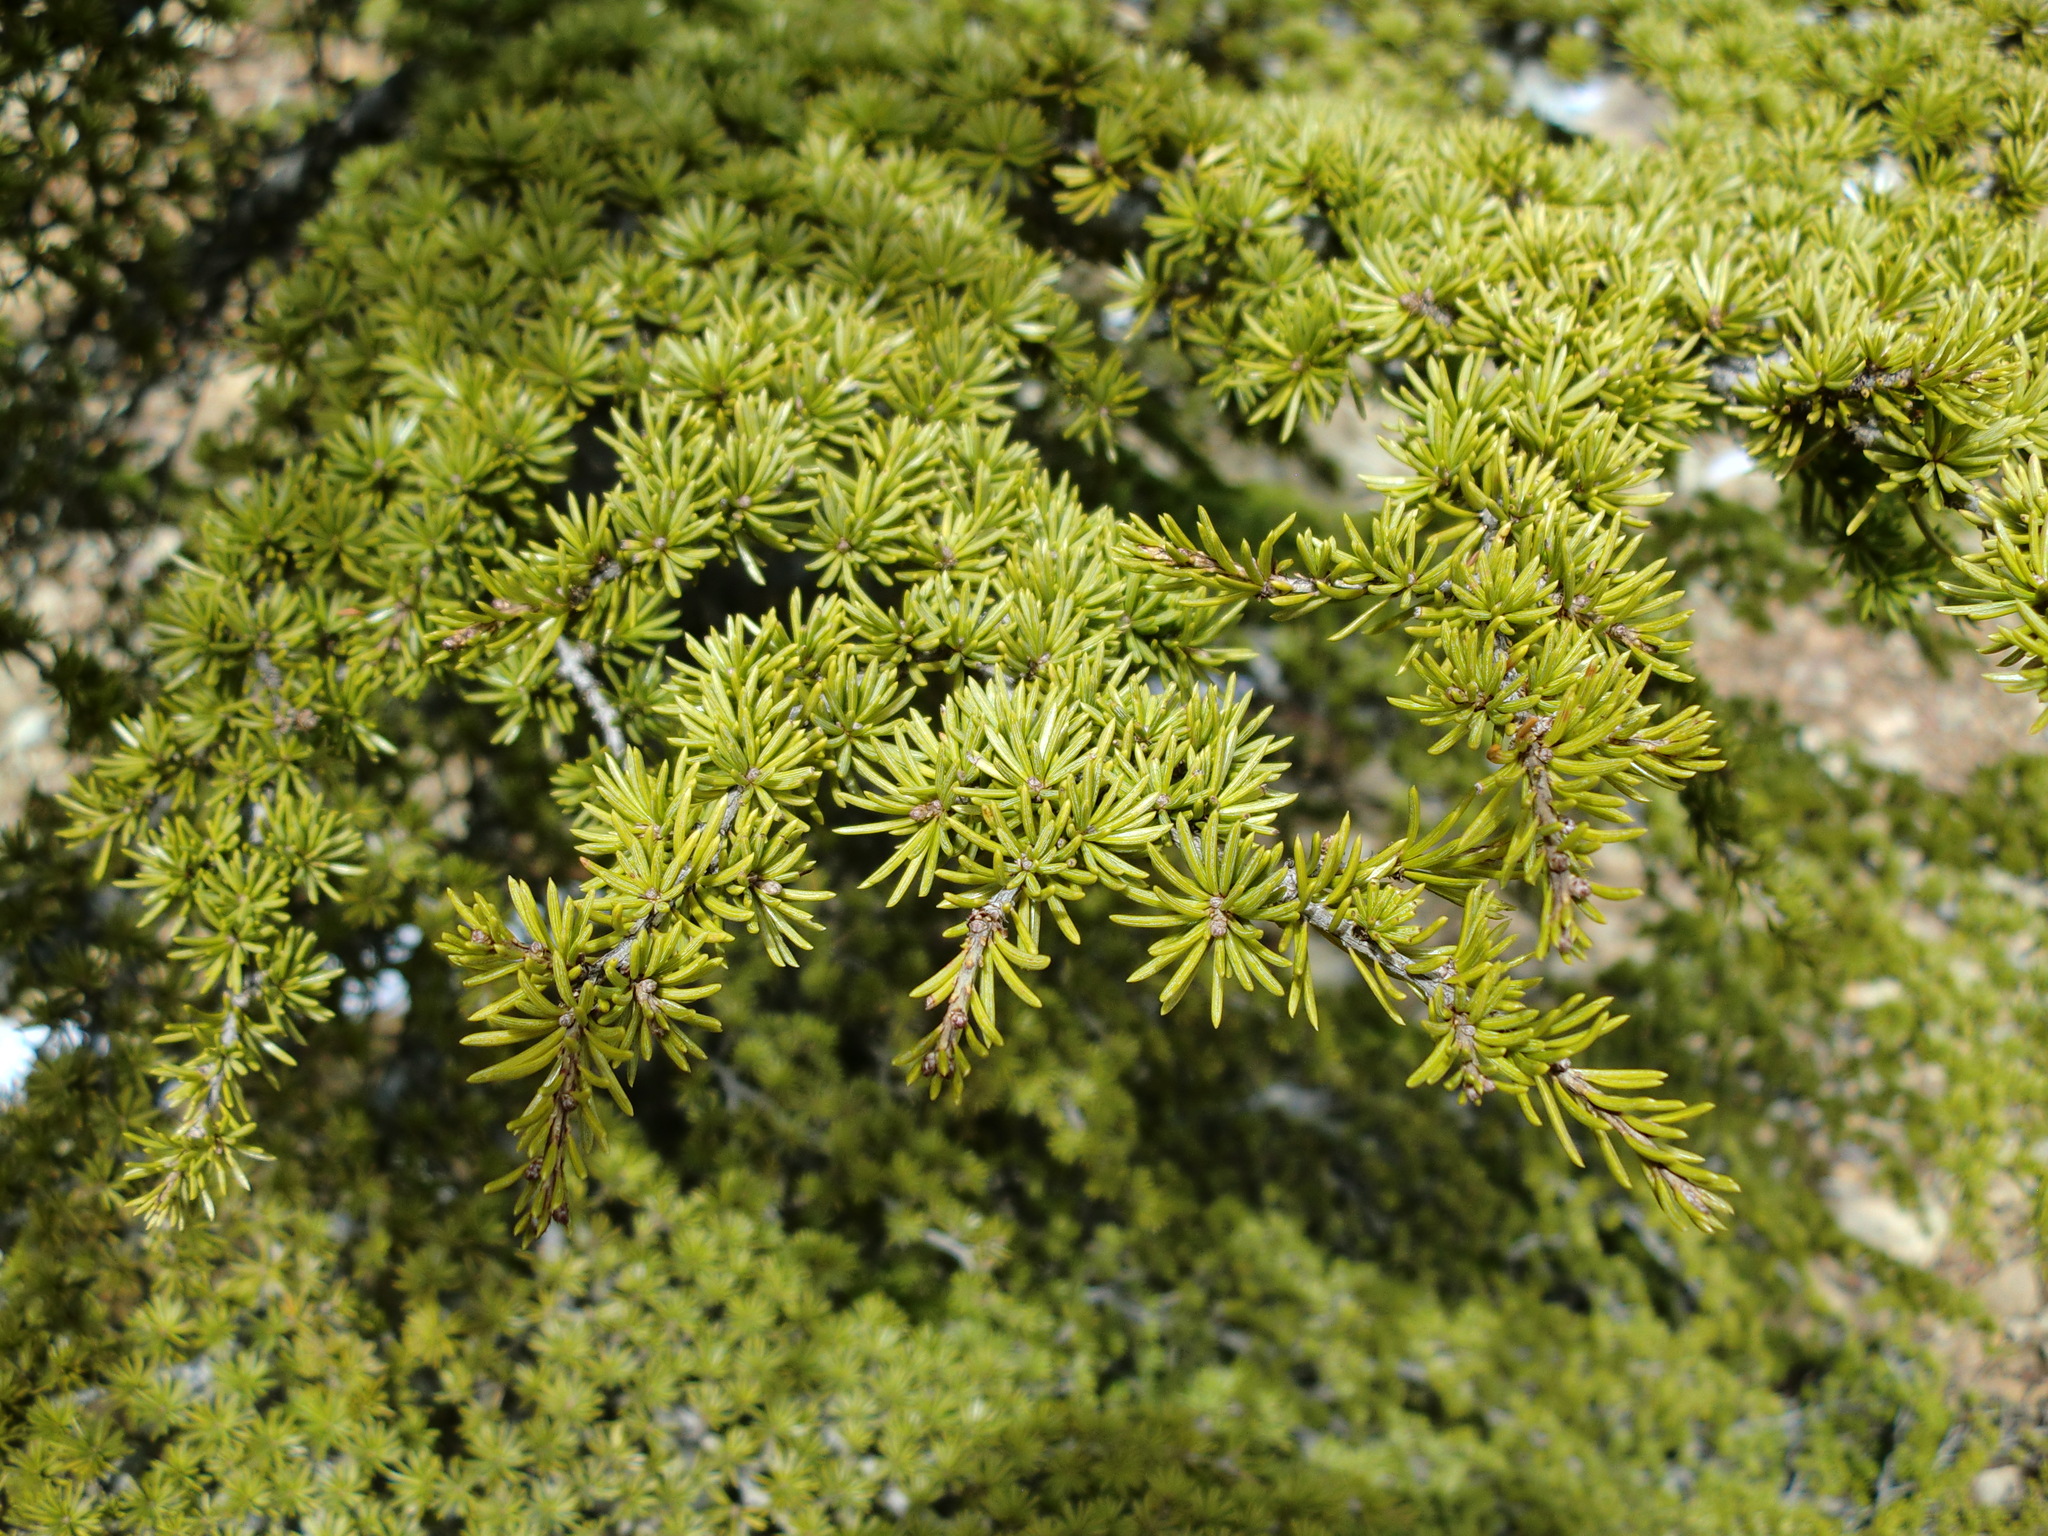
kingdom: Plantae
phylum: Tracheophyta
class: Pinopsida
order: Pinales
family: Pinaceae
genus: Cedrus
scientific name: Cedrus brevifolia
